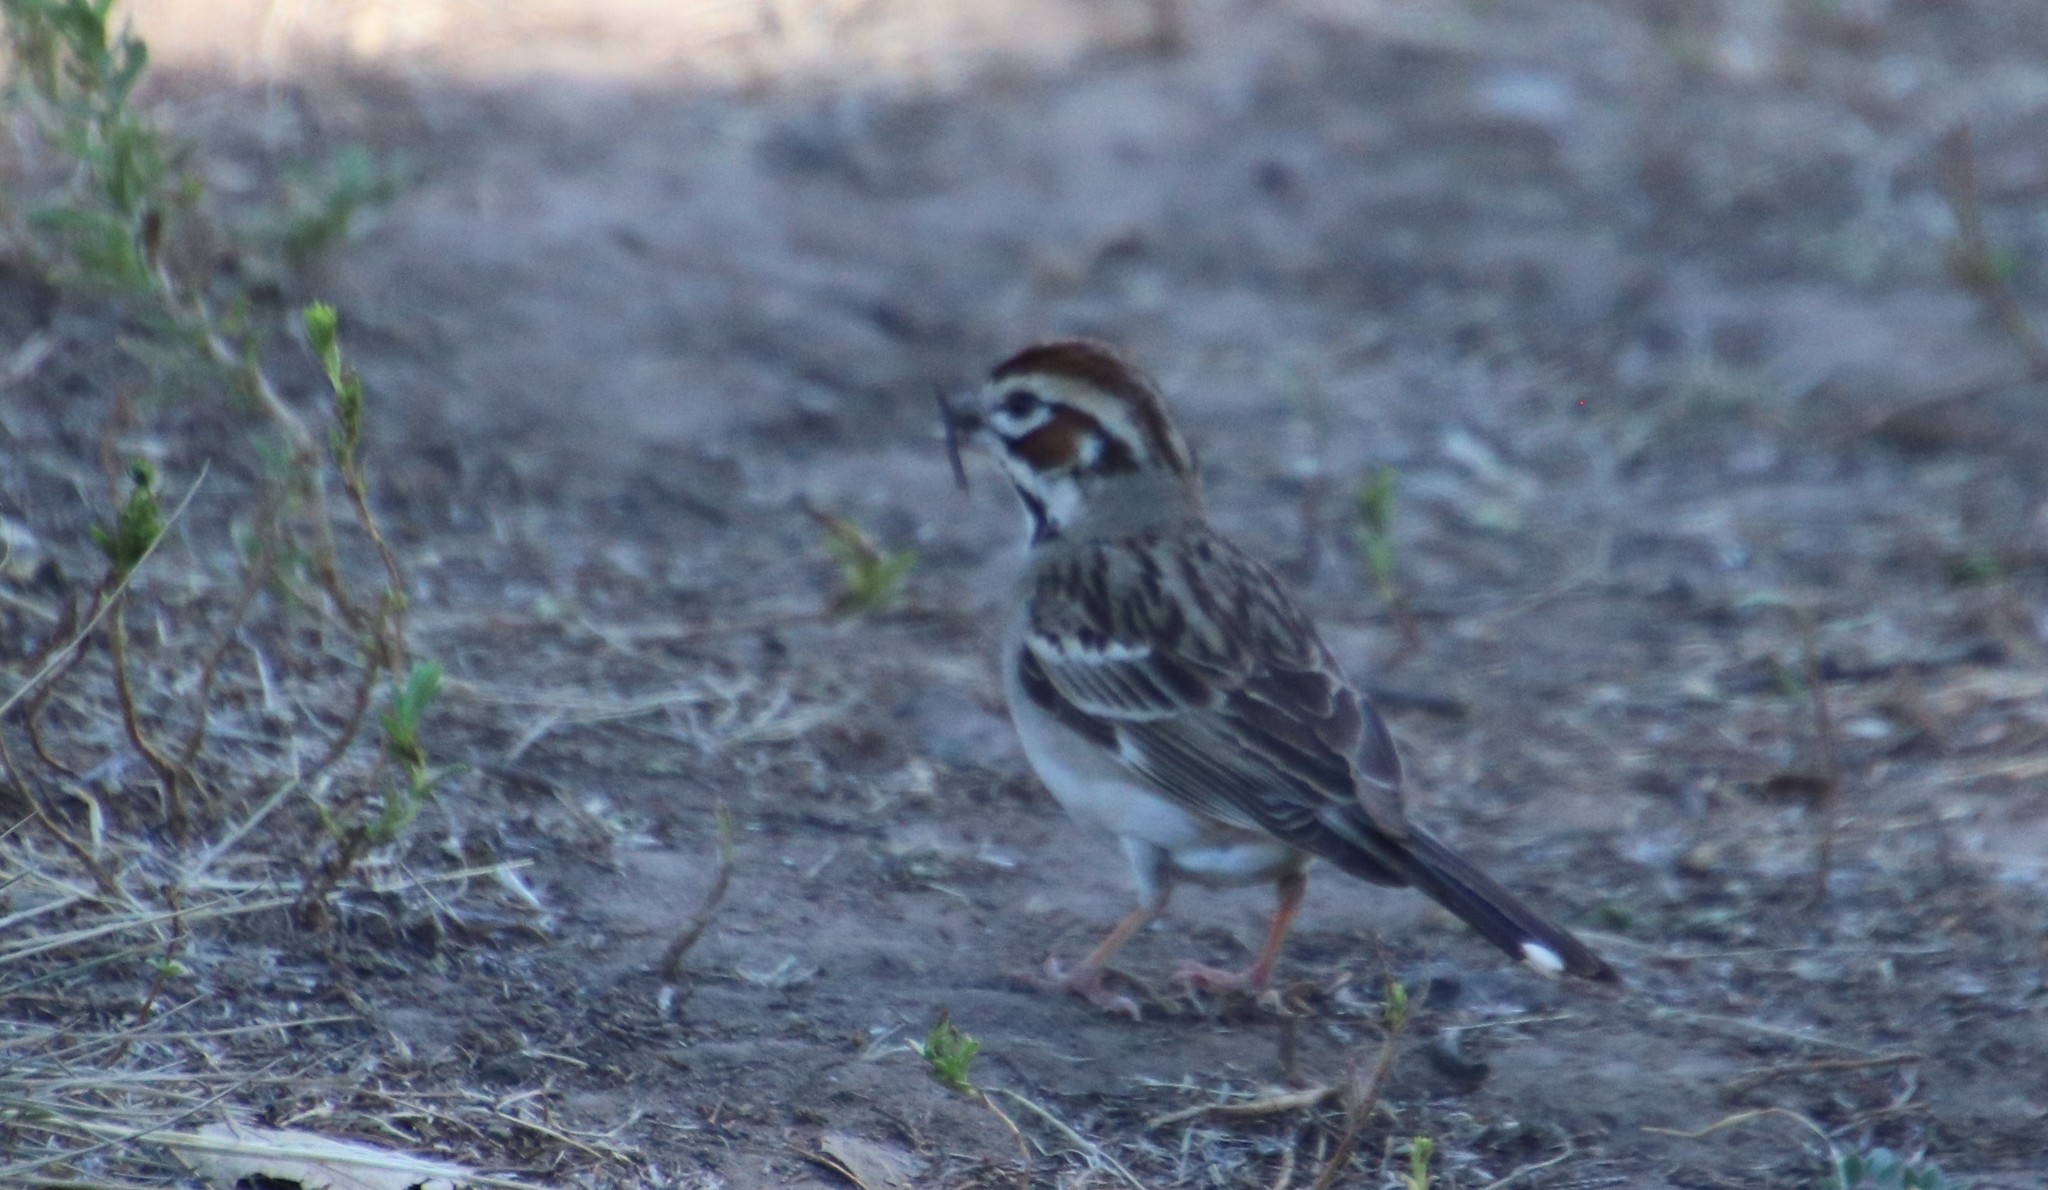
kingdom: Animalia
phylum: Chordata
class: Aves
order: Passeriformes
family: Passerellidae
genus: Chondestes
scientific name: Chondestes grammacus
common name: Lark sparrow
